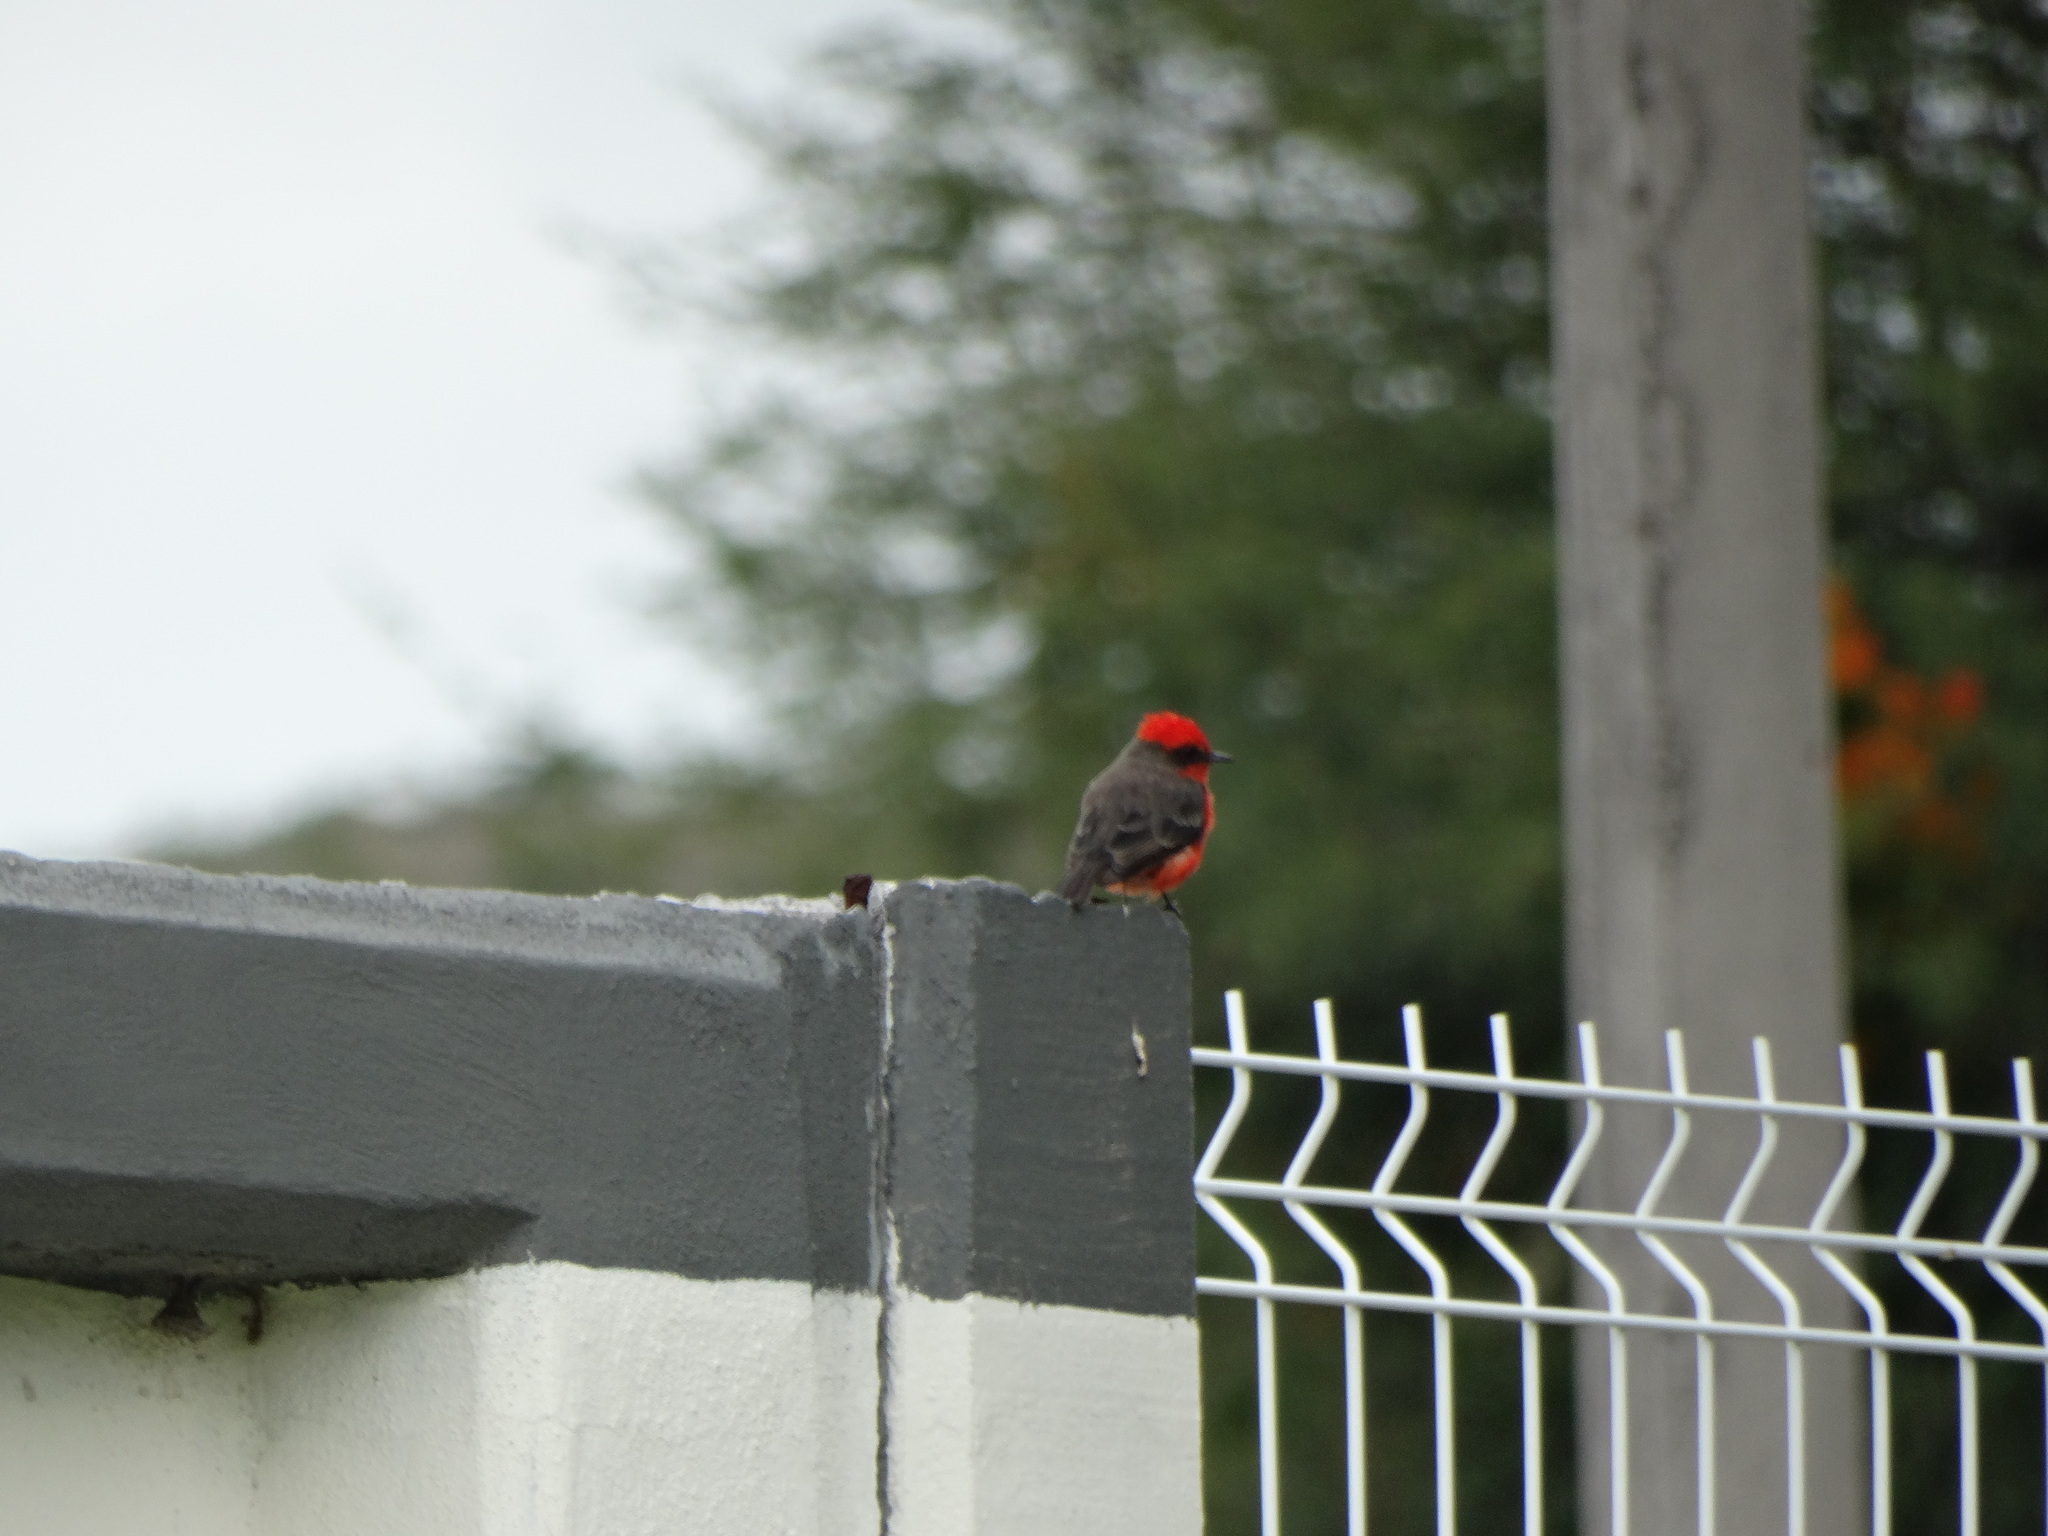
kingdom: Animalia
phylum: Chordata
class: Aves
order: Passeriformes
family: Tyrannidae
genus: Pyrocephalus
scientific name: Pyrocephalus rubinus
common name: Vermilion flycatcher
